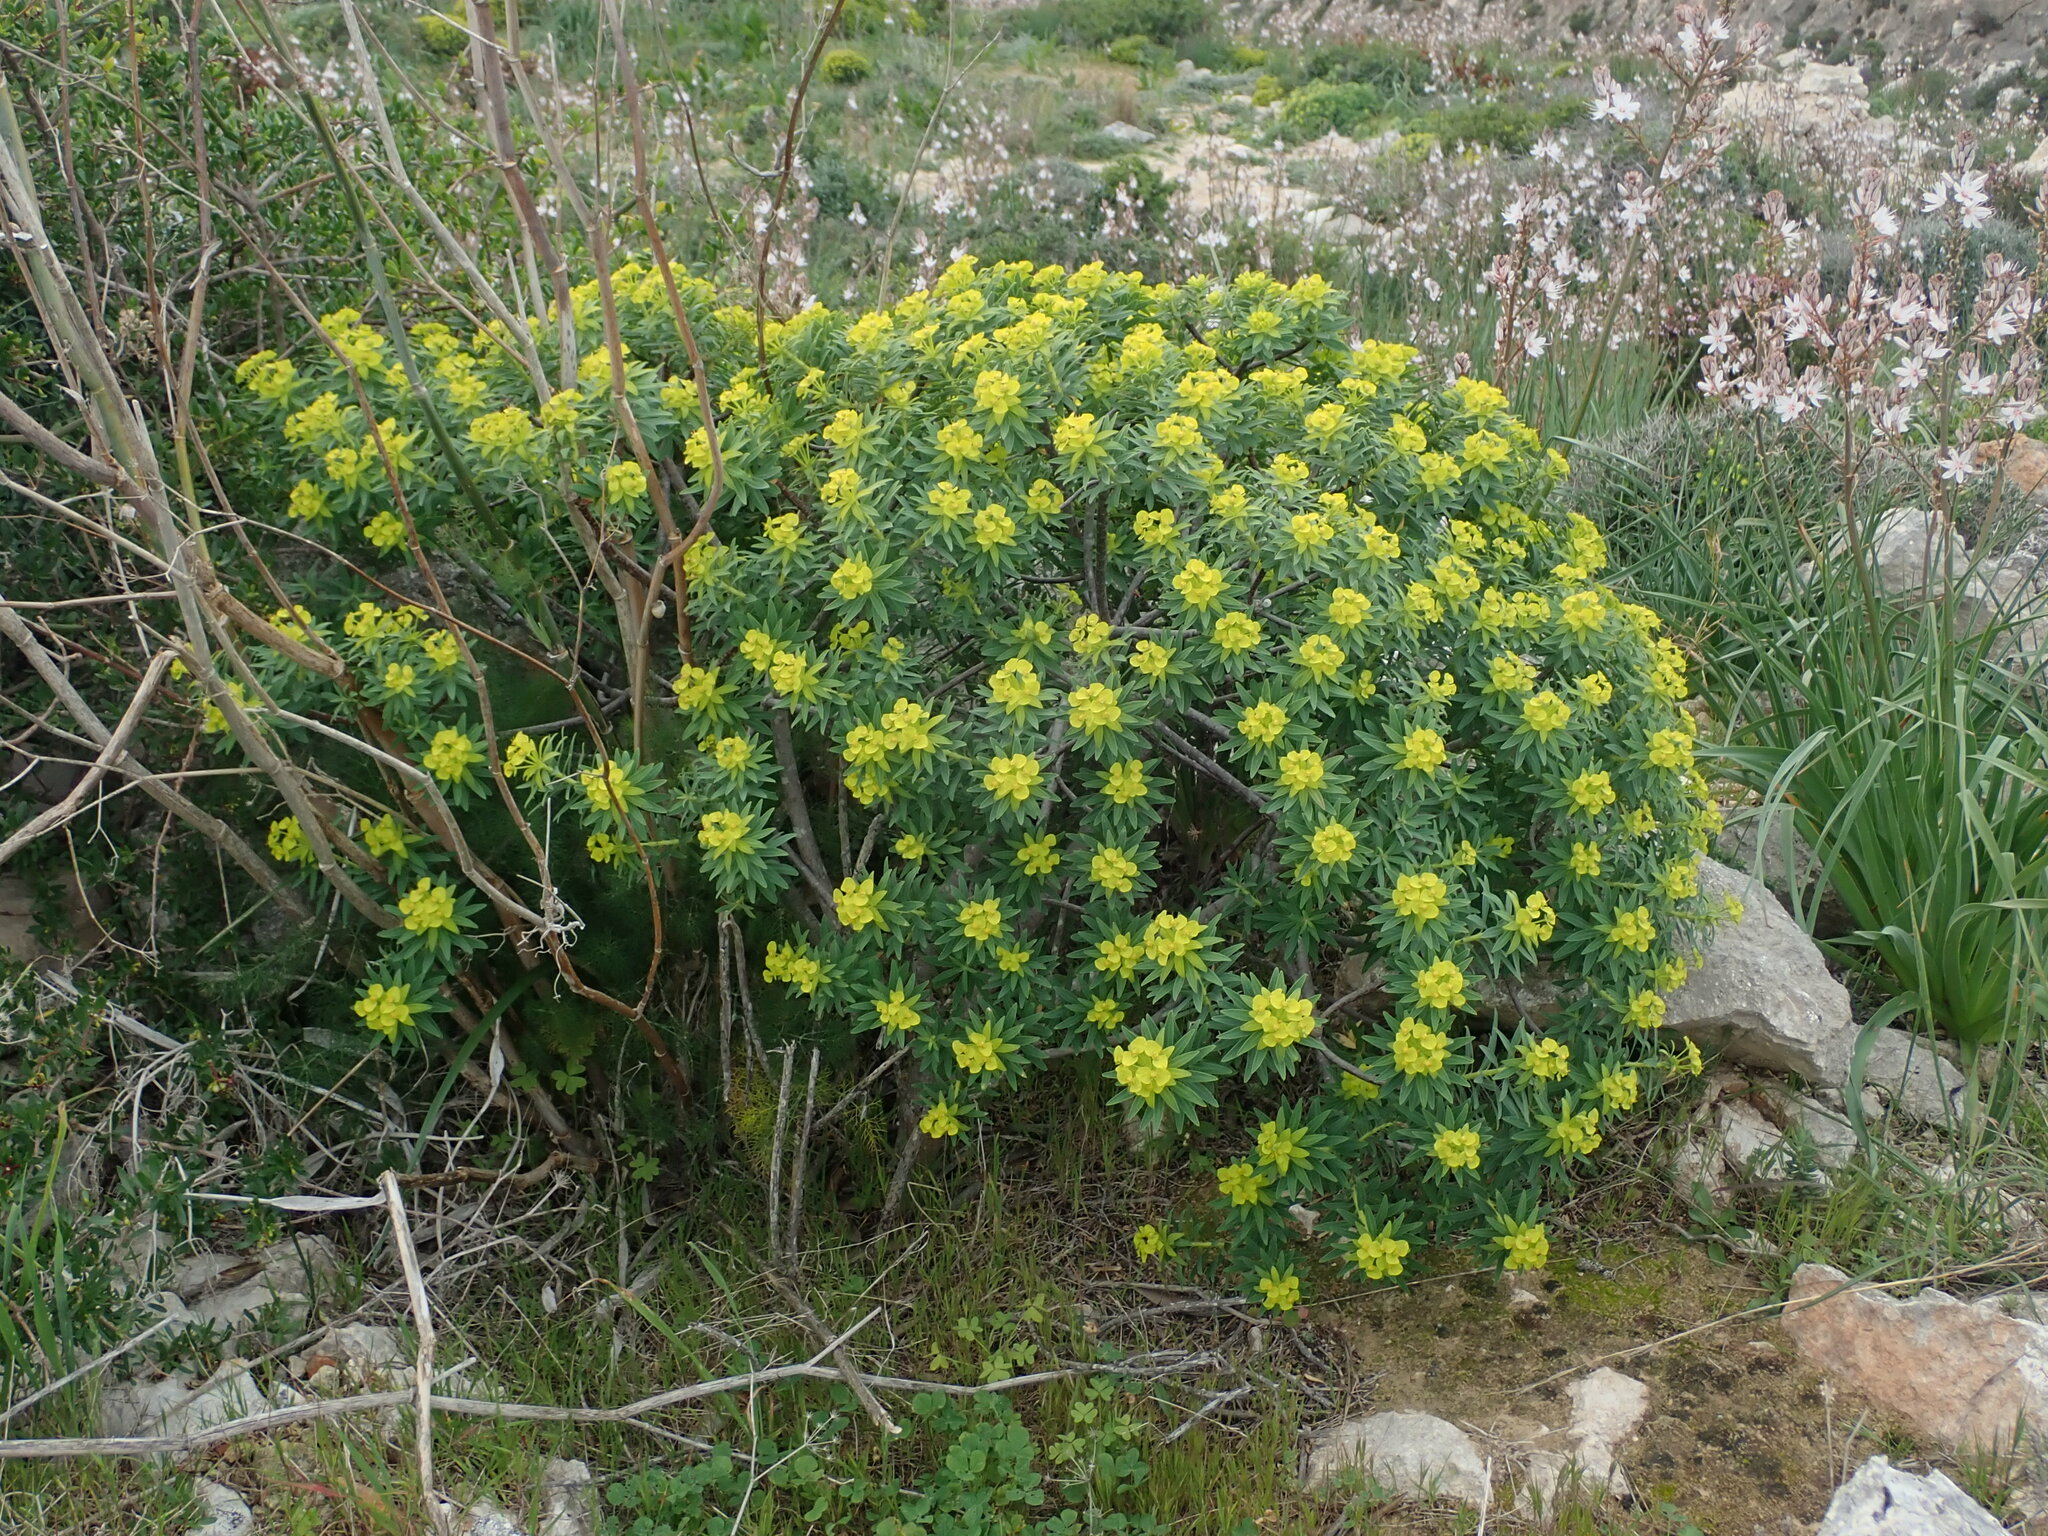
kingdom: Plantae
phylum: Tracheophyta
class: Magnoliopsida
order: Malpighiales
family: Euphorbiaceae
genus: Euphorbia
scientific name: Euphorbia dendroides
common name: Tree spurge
